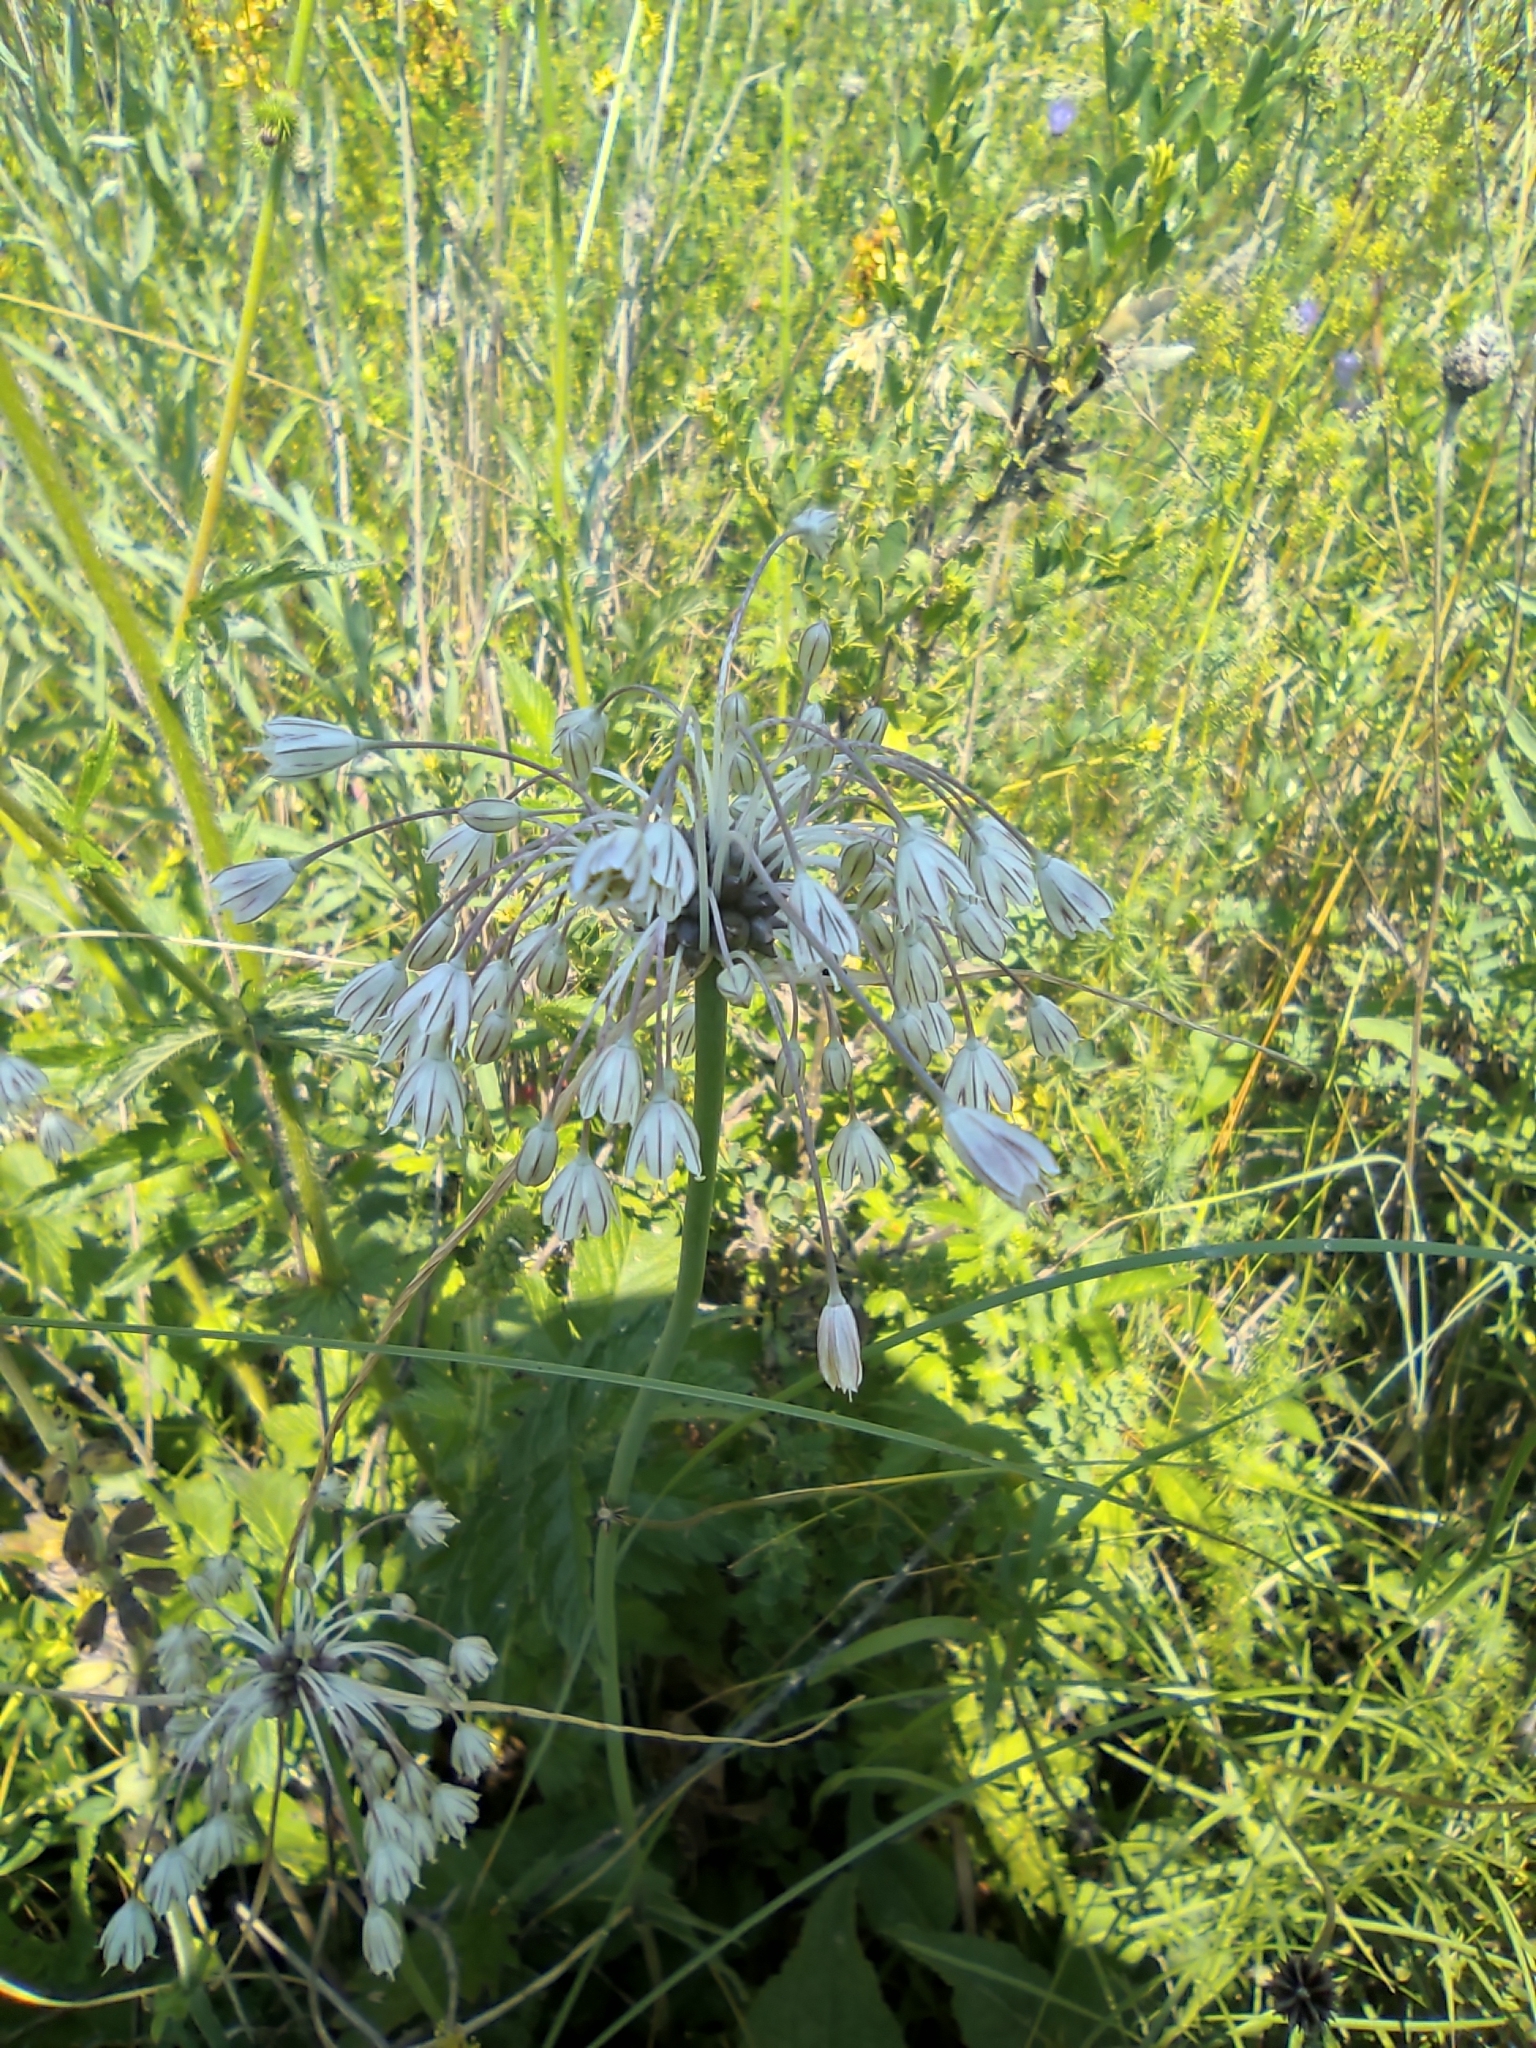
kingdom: Plantae
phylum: Tracheophyta
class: Liliopsida
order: Asparagales
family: Amaryllidaceae
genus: Allium
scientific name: Allium oleraceum
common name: Field garlic
